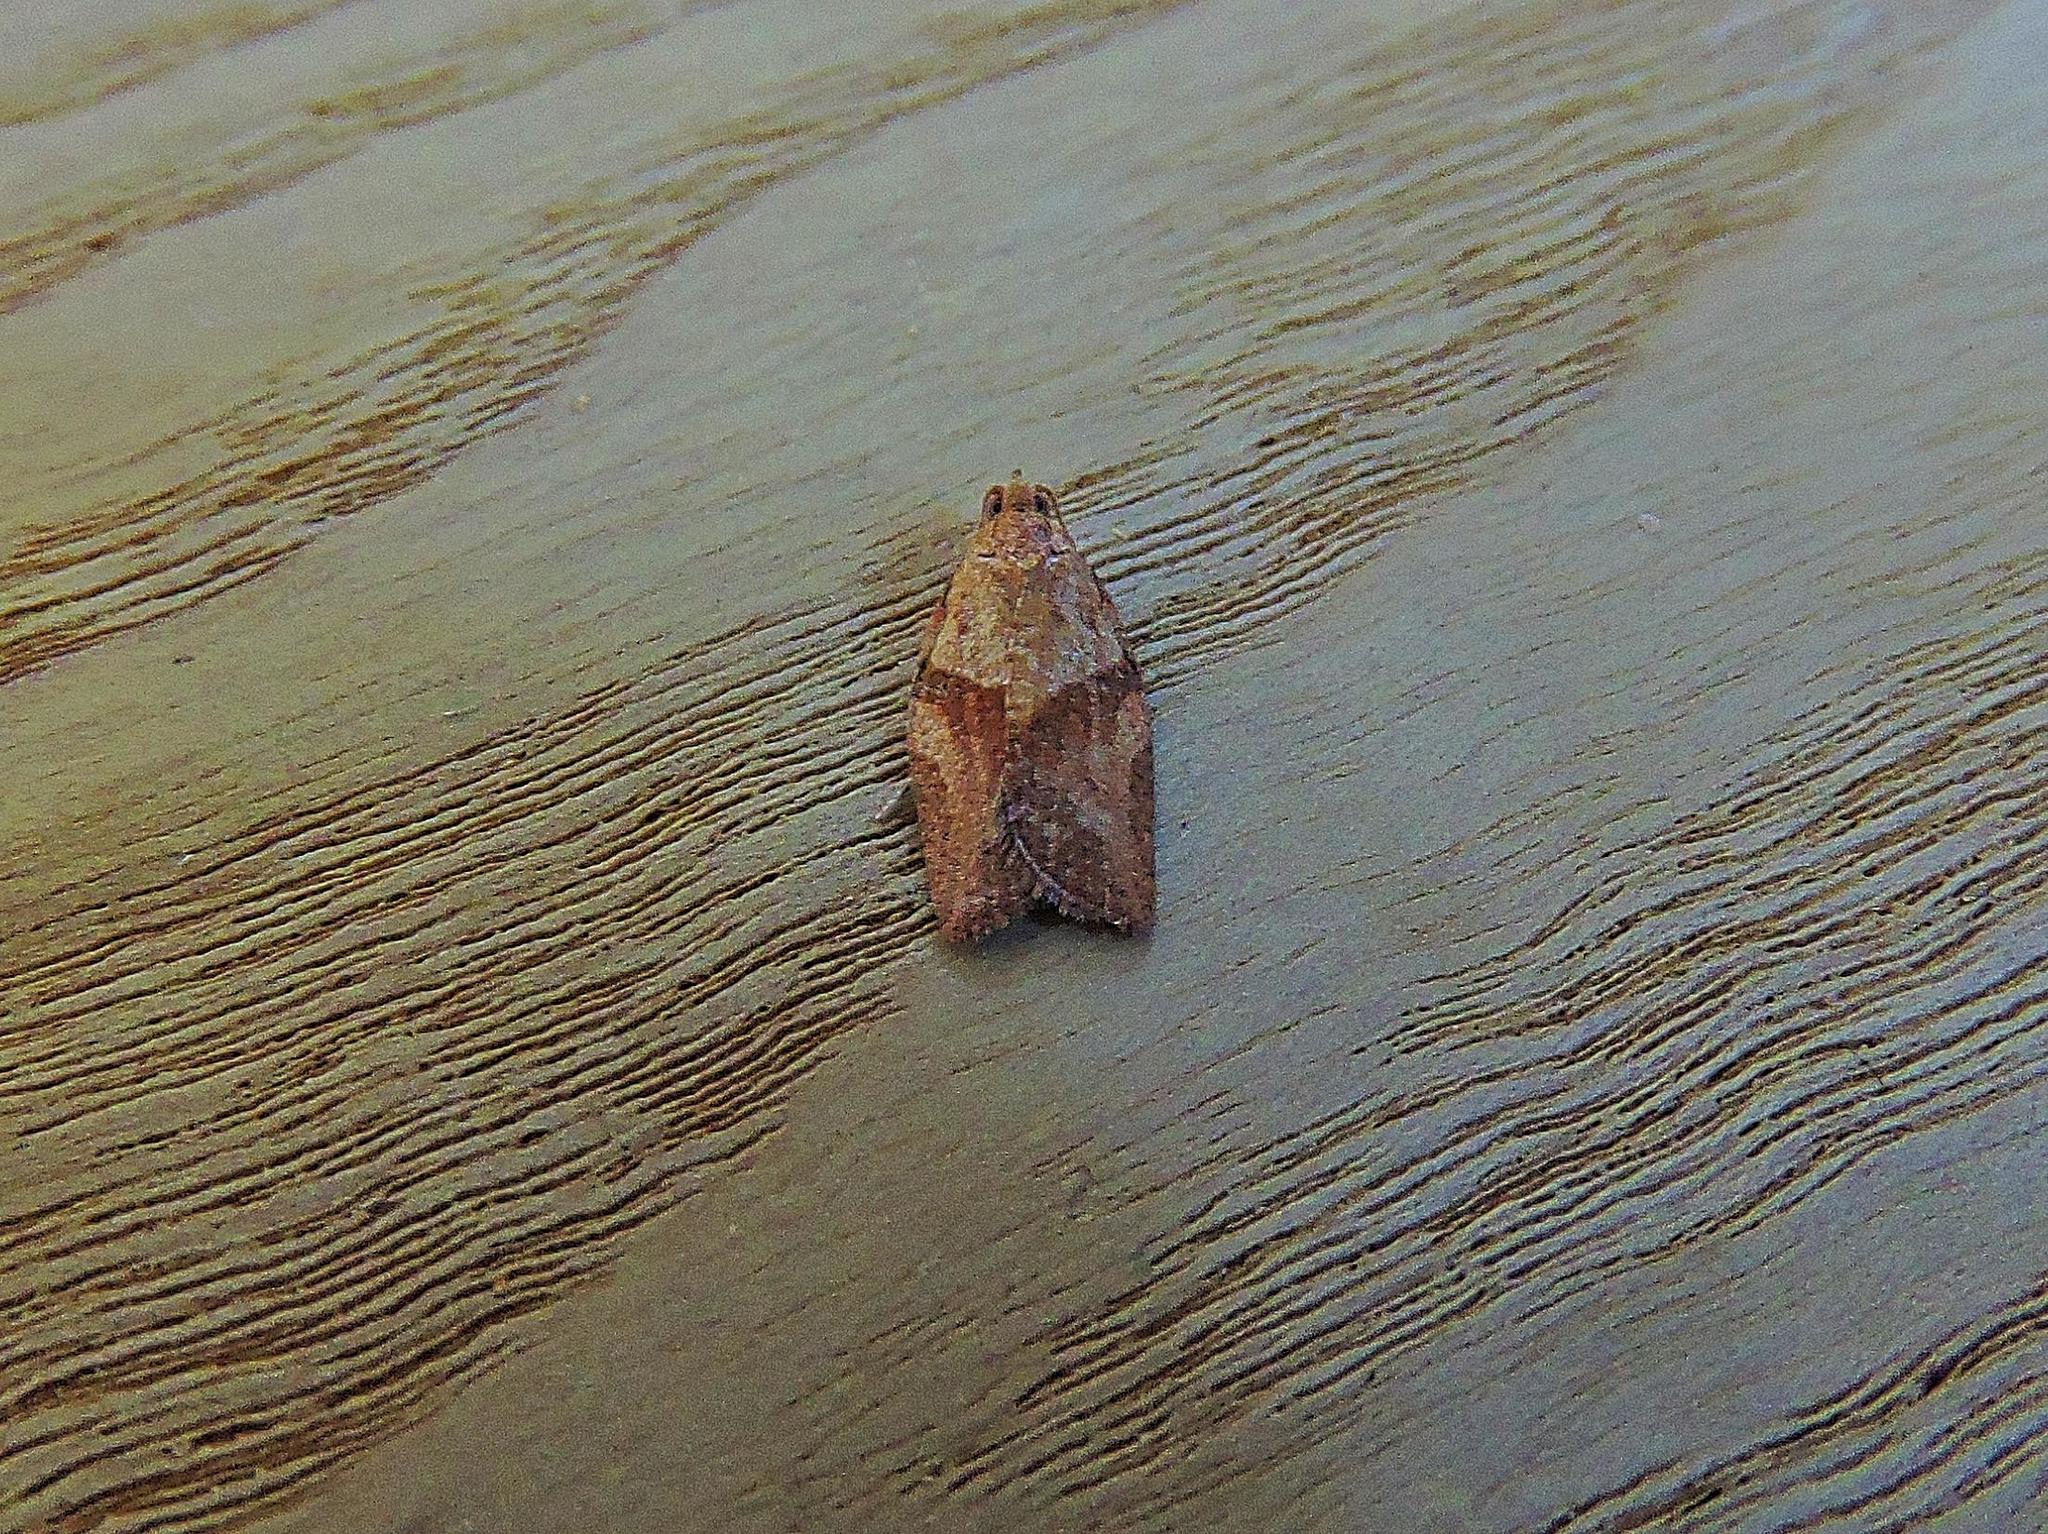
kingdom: Animalia
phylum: Arthropoda
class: Insecta
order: Lepidoptera
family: Tortricidae
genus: Epiphyas
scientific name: Epiphyas postvittana
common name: Light brown apple moth
